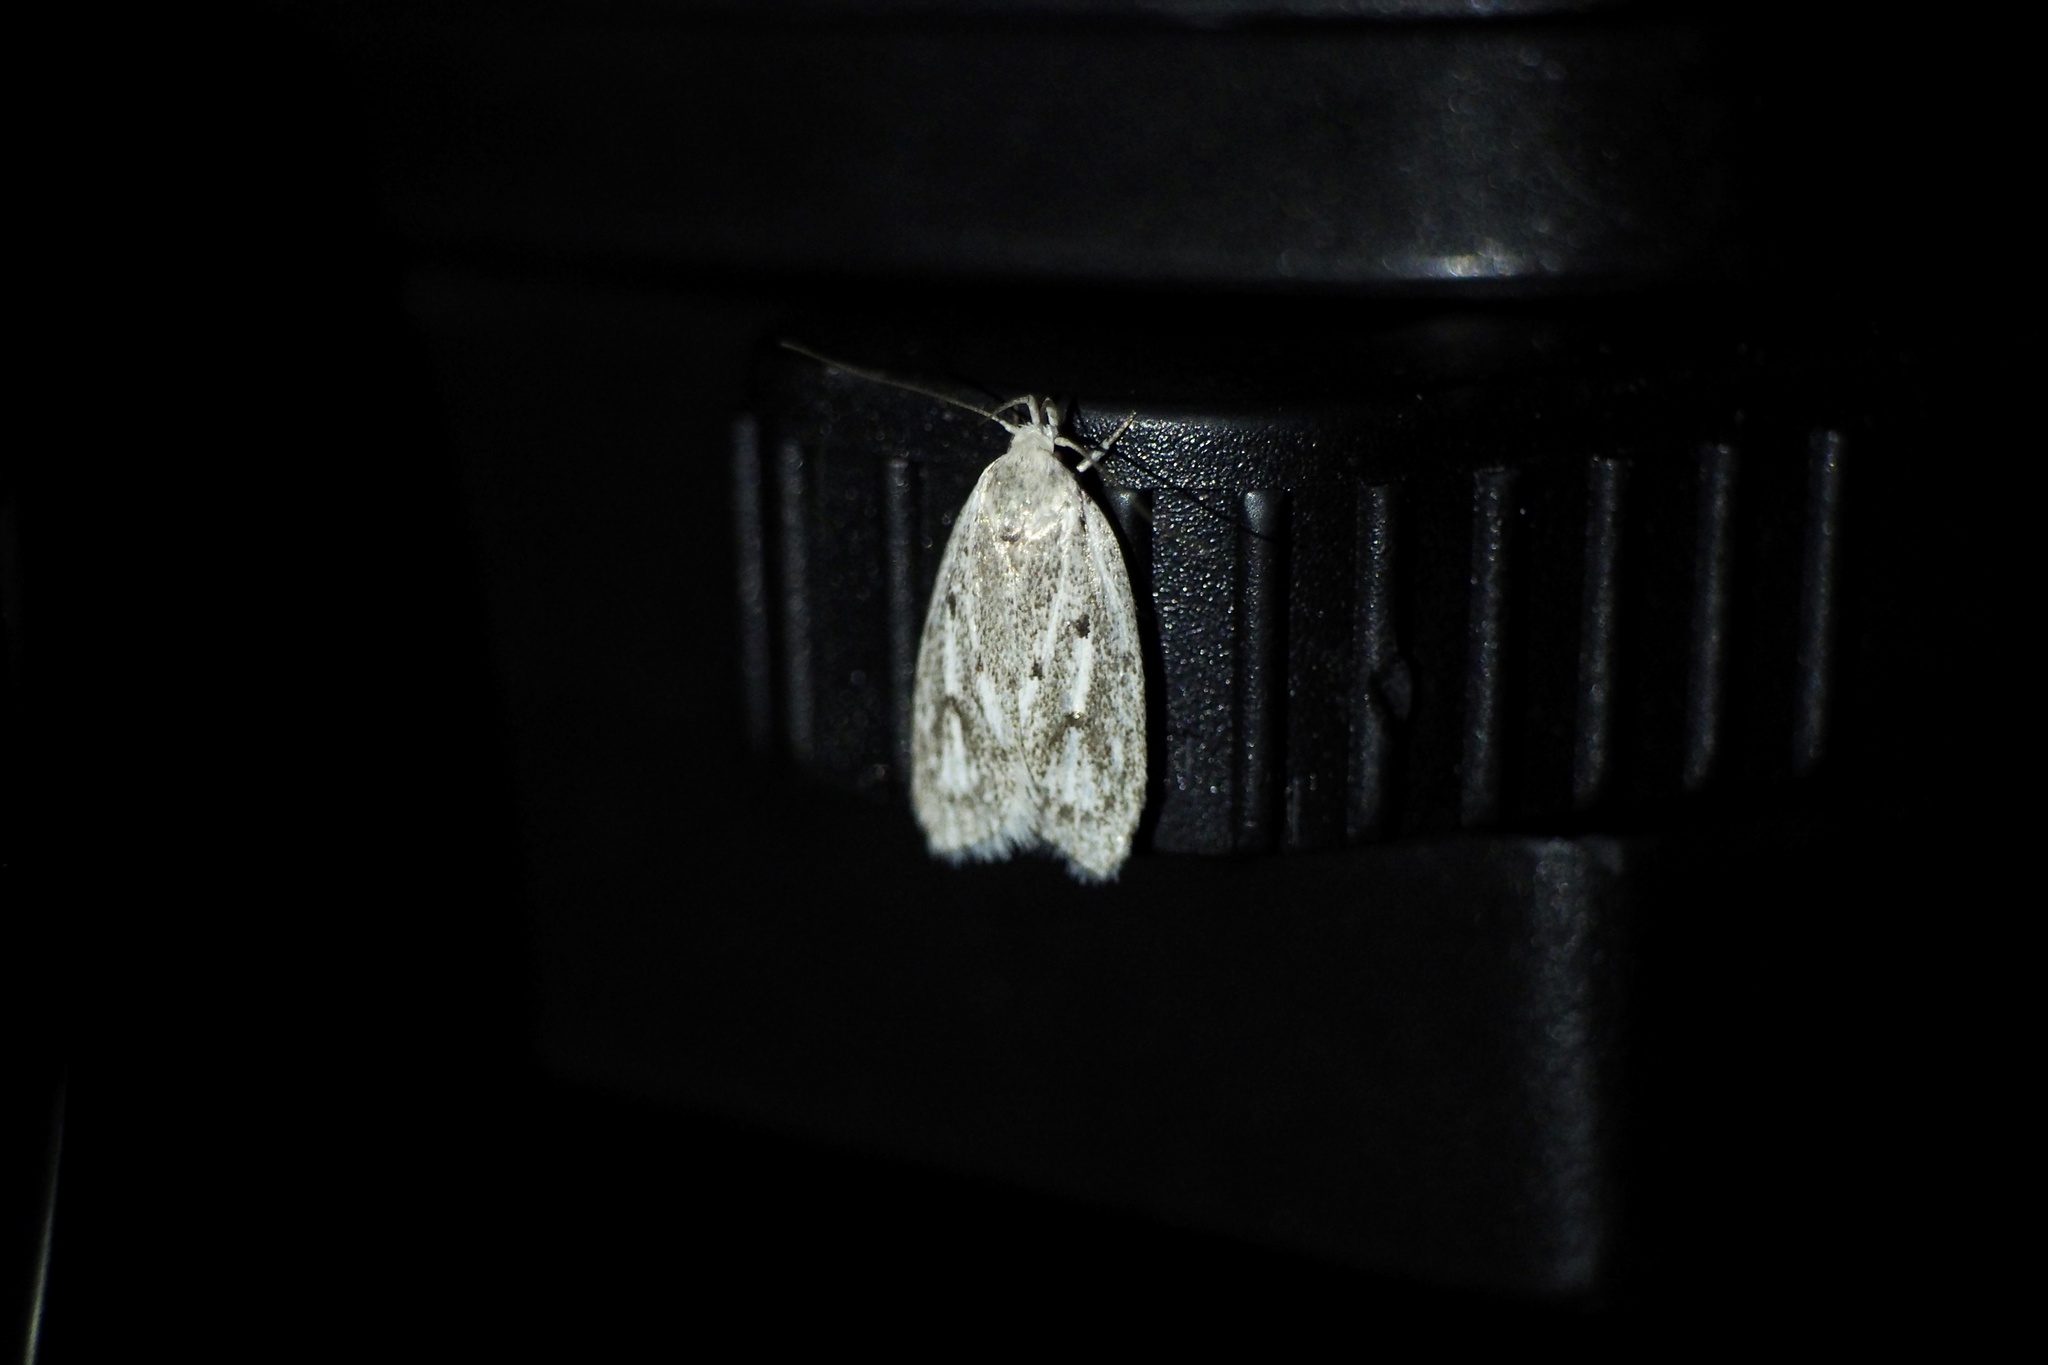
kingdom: Animalia
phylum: Arthropoda
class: Insecta
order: Lepidoptera
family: Peleopodidae
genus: Scythropiodes
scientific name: Scythropiodes leucostola
